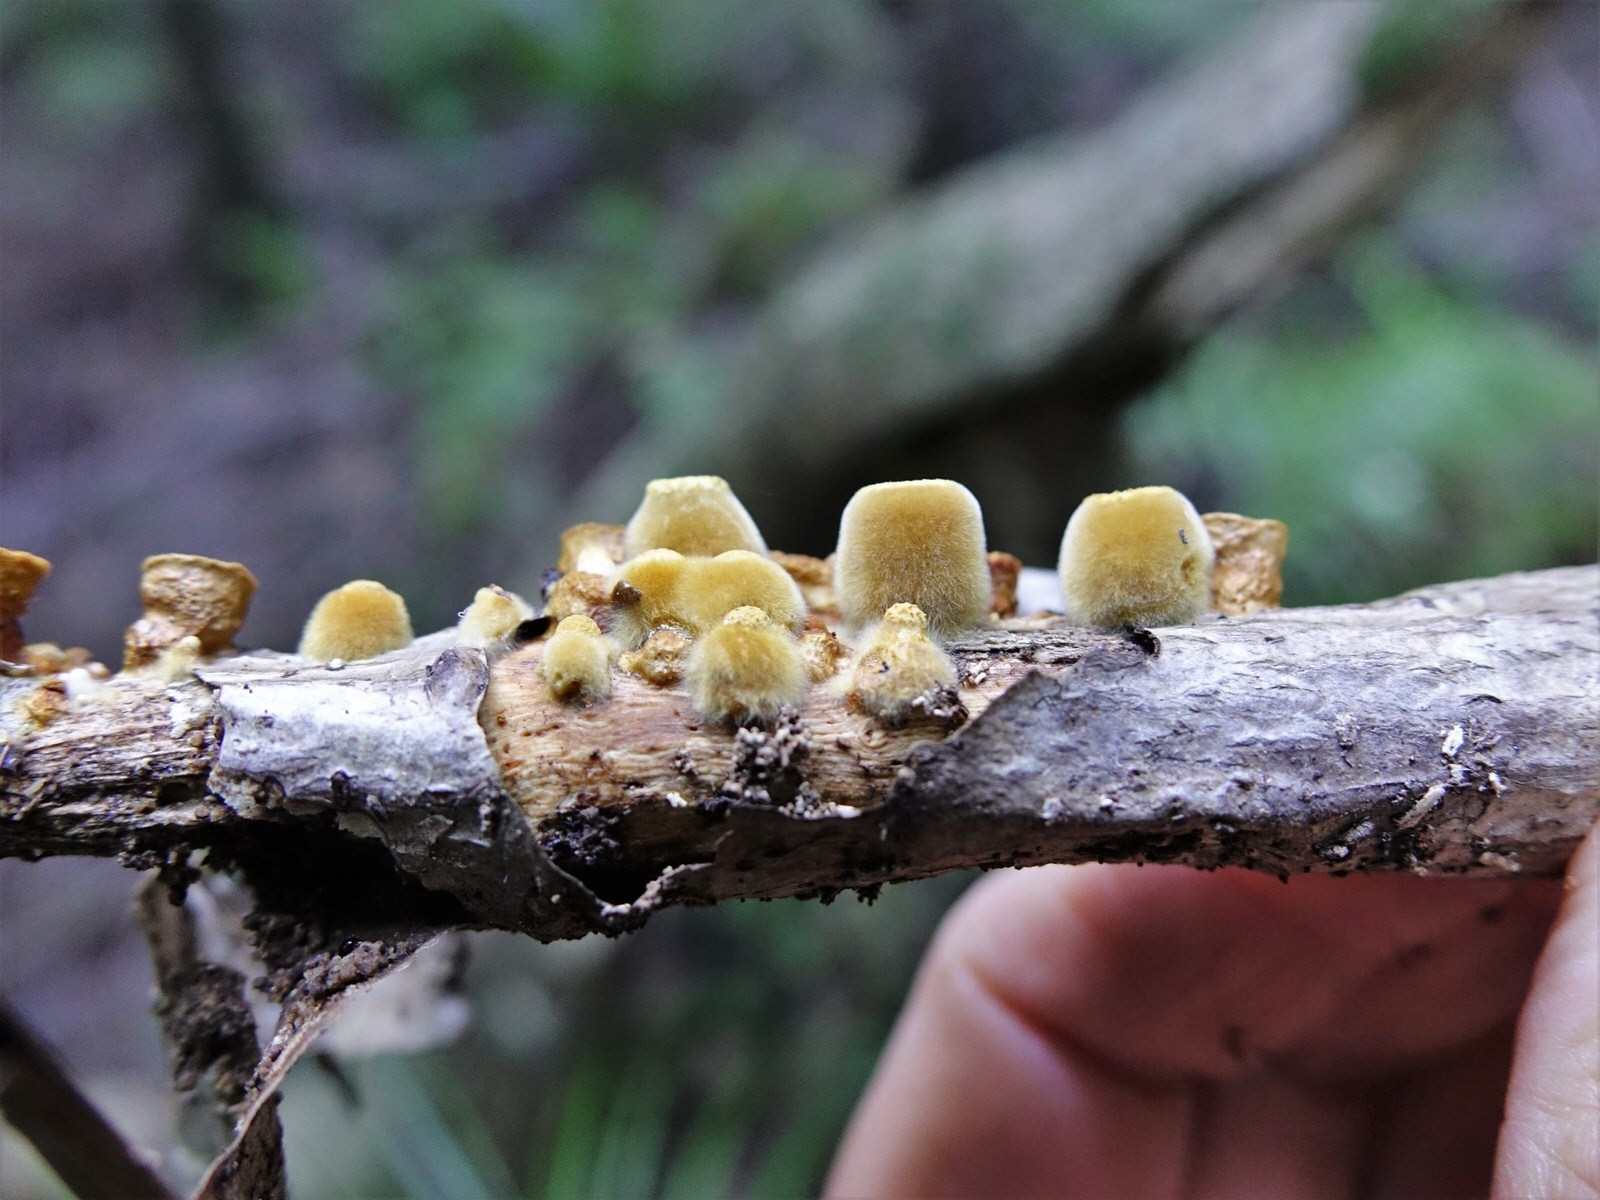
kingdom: Fungi
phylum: Basidiomycota
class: Agaricomycetes
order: Agaricales
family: Nidulariaceae
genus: Crucibulum
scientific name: Crucibulum laeve
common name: Common bird's nest
